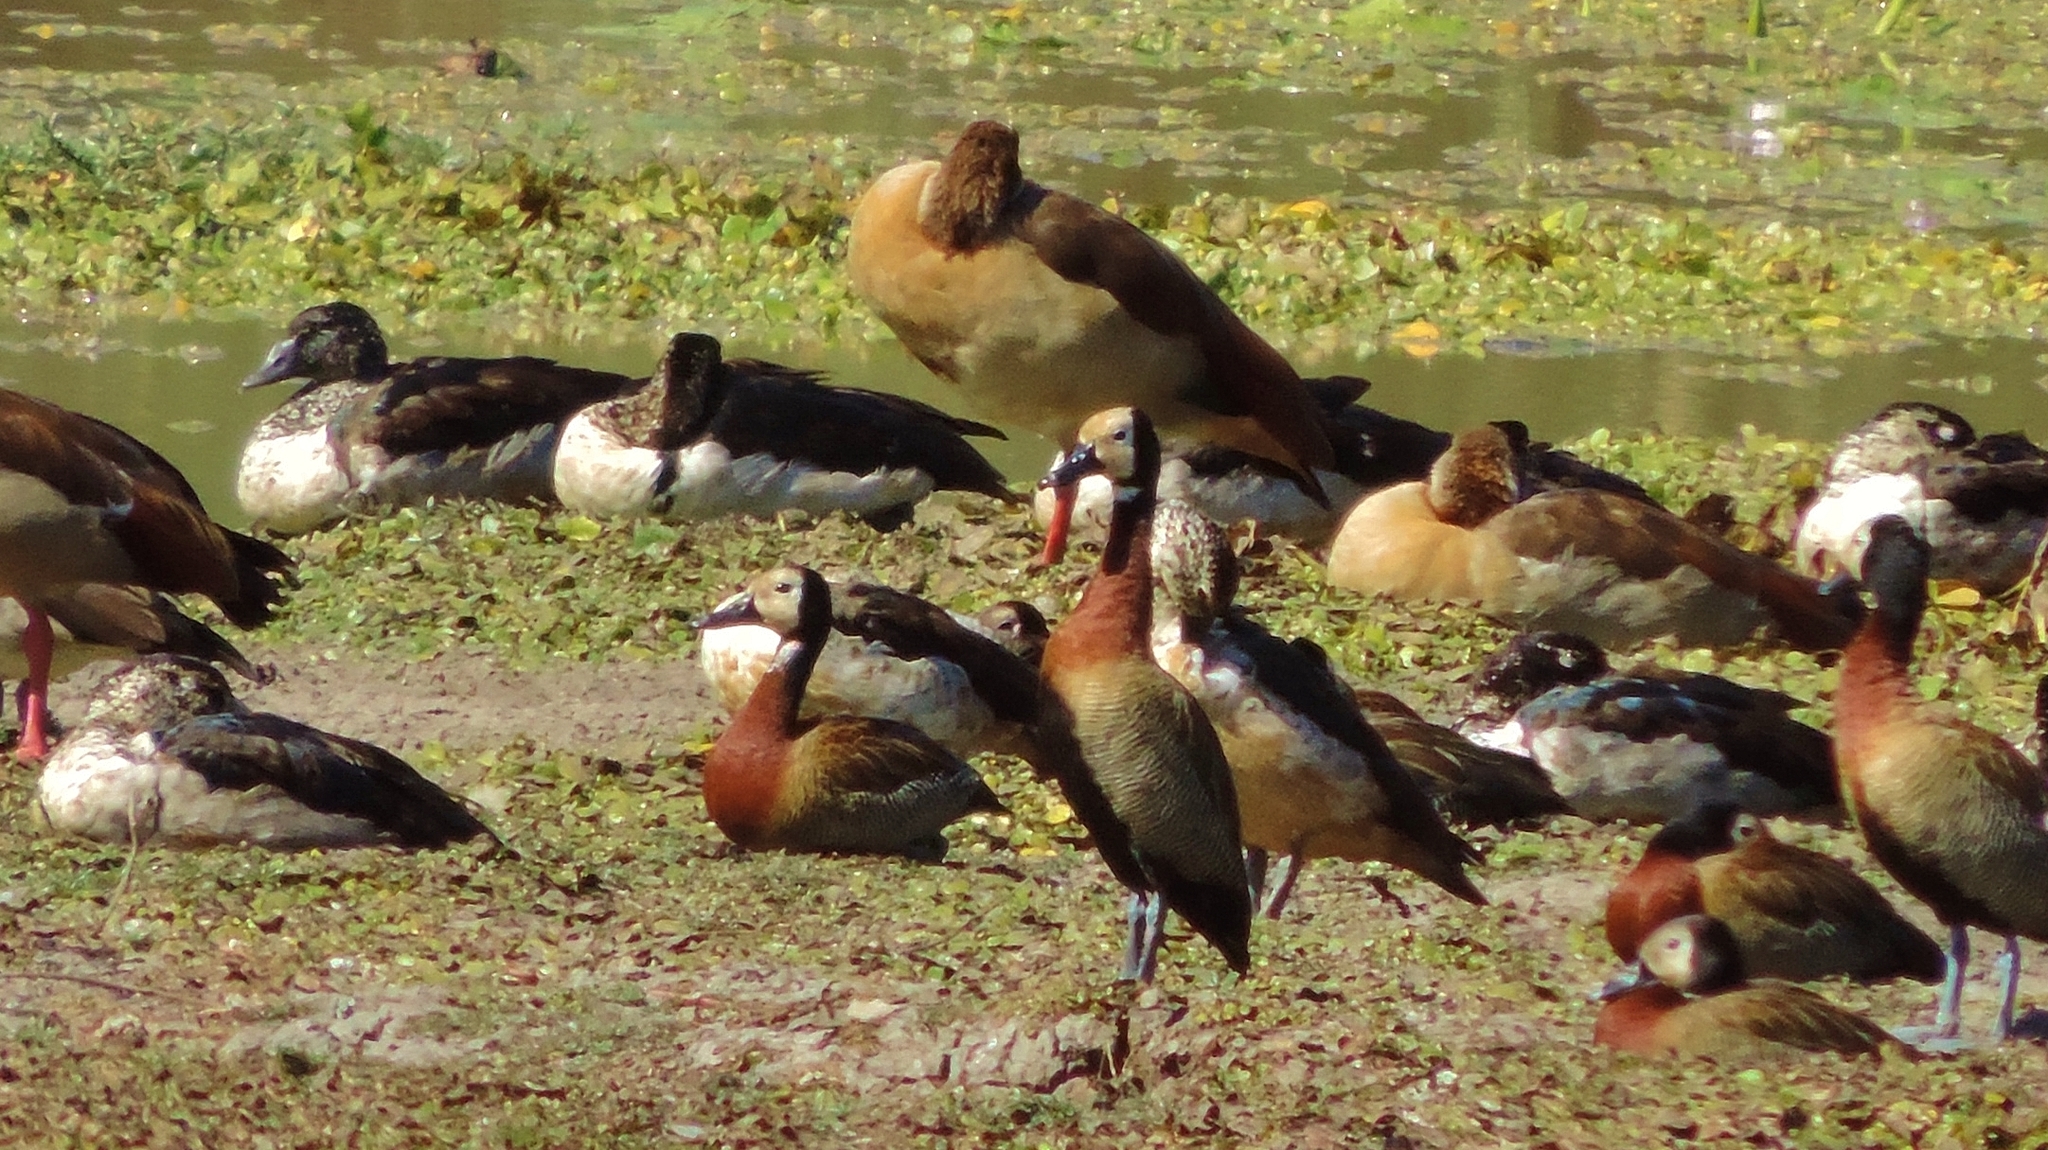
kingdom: Animalia
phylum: Chordata
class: Aves
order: Anseriformes
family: Anatidae
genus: Sarkidiornis
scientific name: Sarkidiornis melanotos
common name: Comb duck
